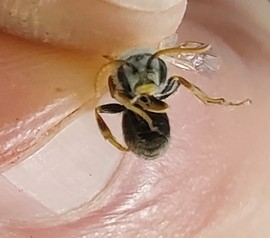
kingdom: Animalia
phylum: Arthropoda
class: Insecta
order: Hymenoptera
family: Halictidae
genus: Halictus
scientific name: Halictus ligatus
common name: Ligated furrow bee
